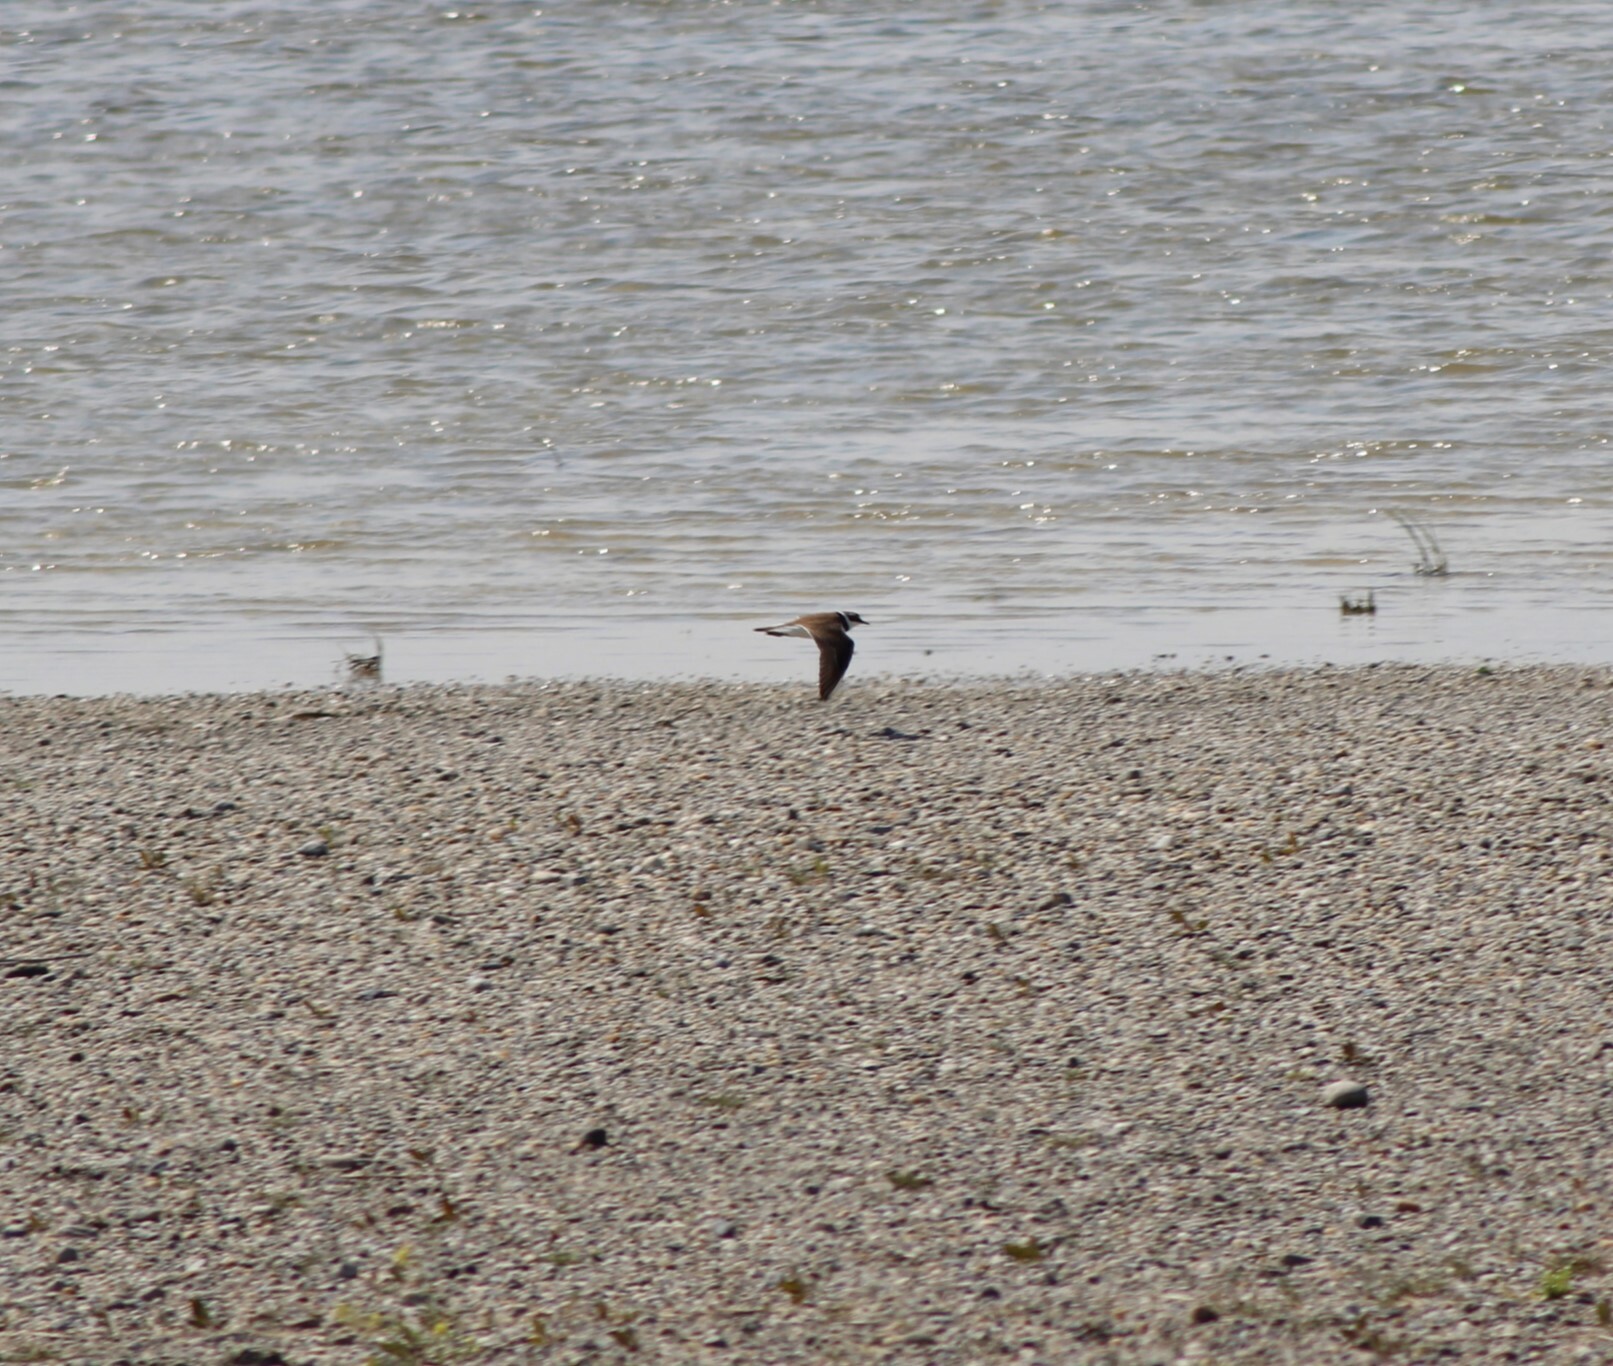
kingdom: Animalia
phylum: Chordata
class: Aves
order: Charadriiformes
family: Charadriidae
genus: Charadrius
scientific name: Charadrius dubius
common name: Little ringed plover
